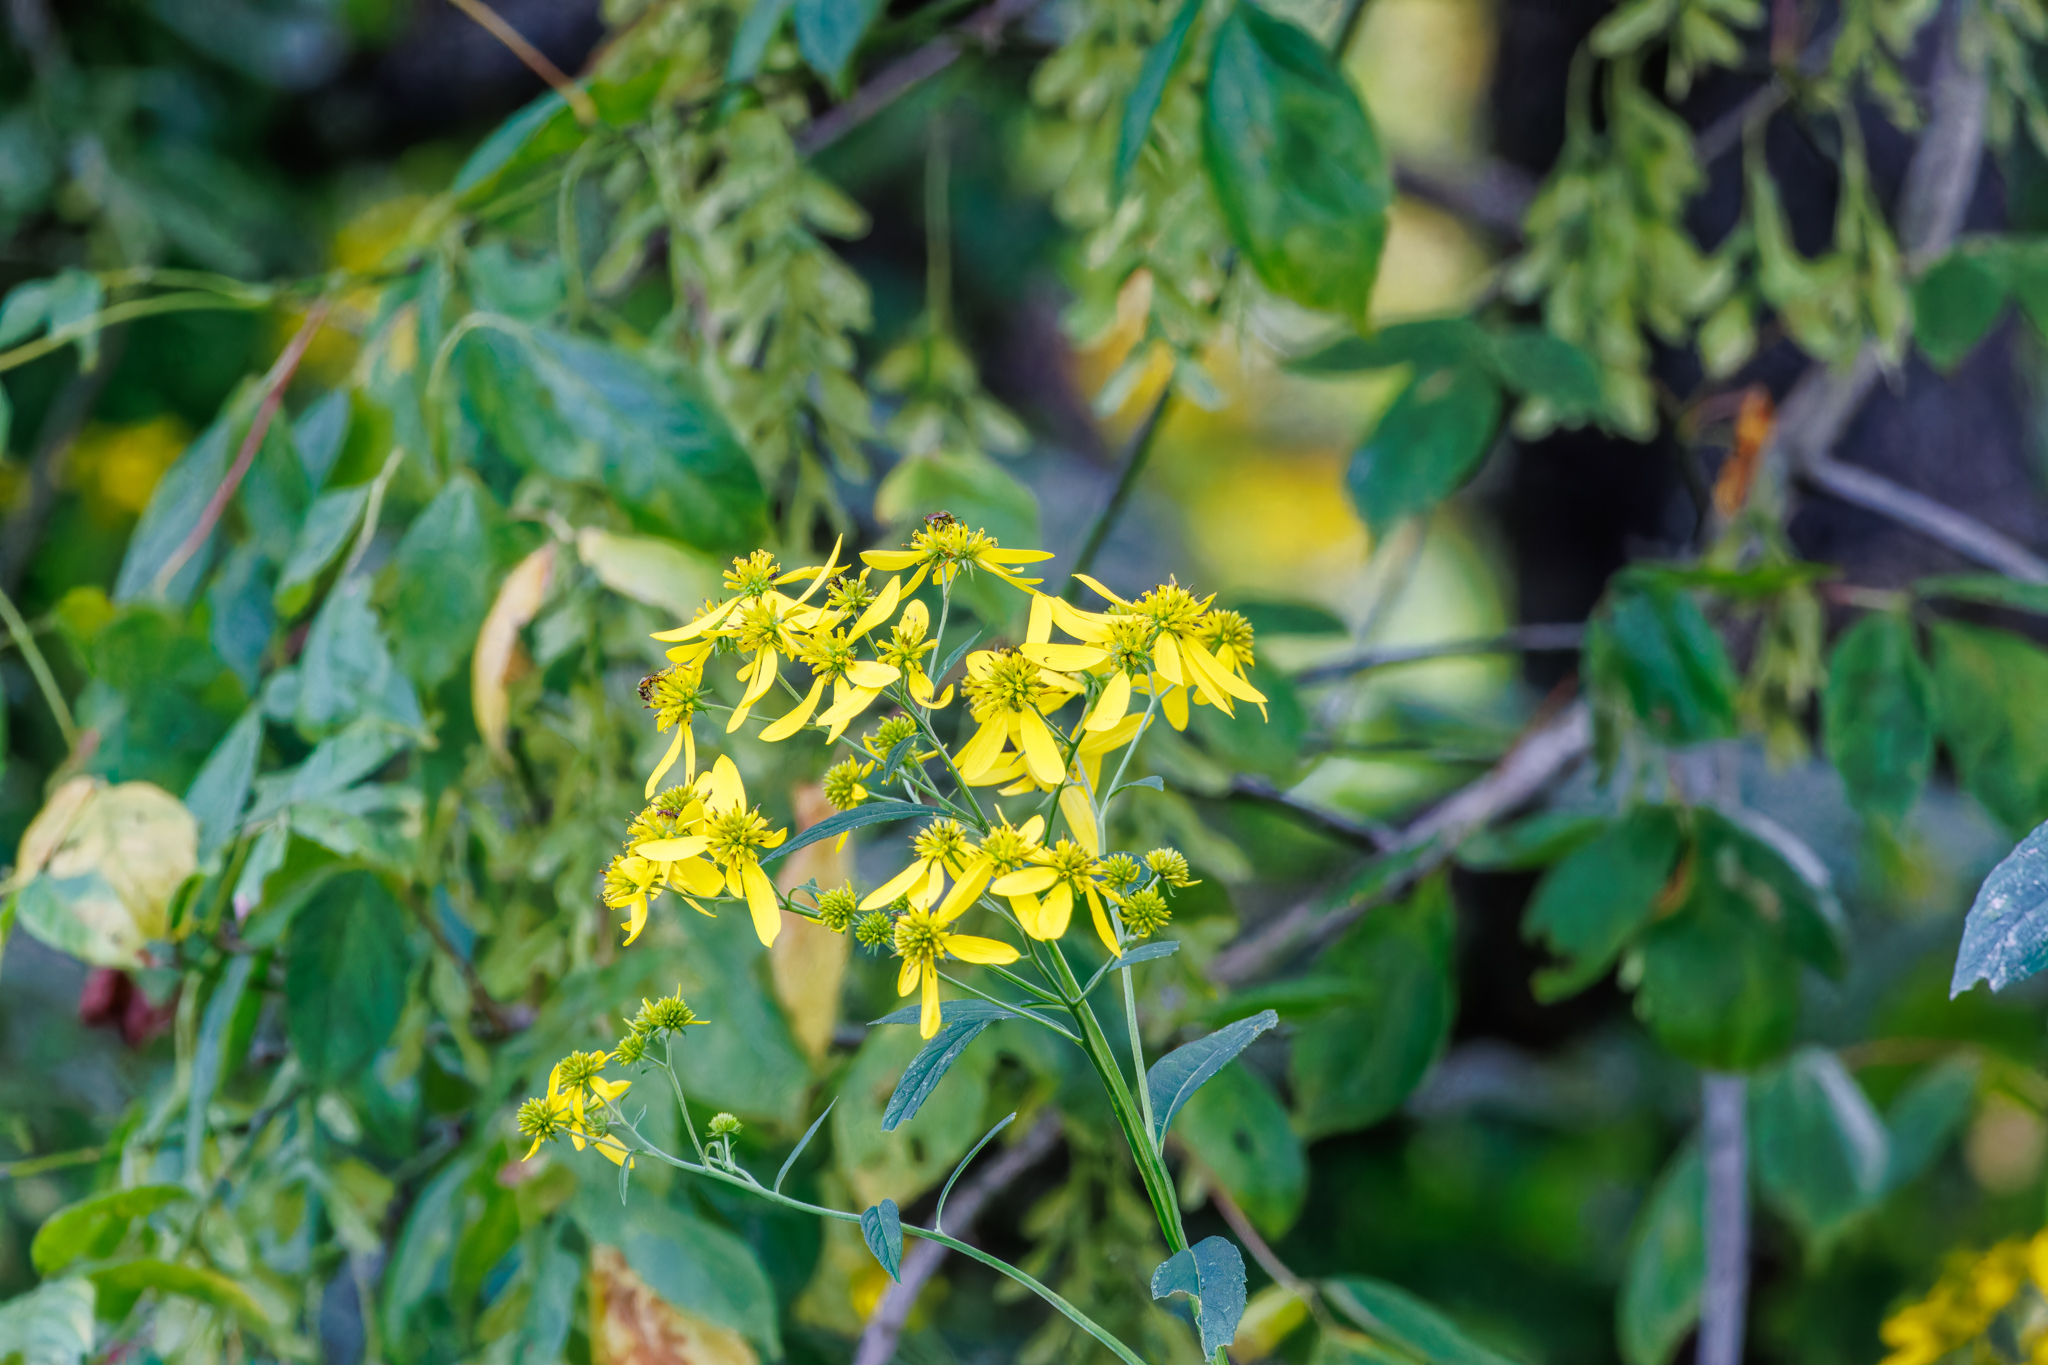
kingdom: Plantae
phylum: Tracheophyta
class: Magnoliopsida
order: Asterales
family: Asteraceae
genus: Verbesina
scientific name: Verbesina alternifolia
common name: Wingstem
